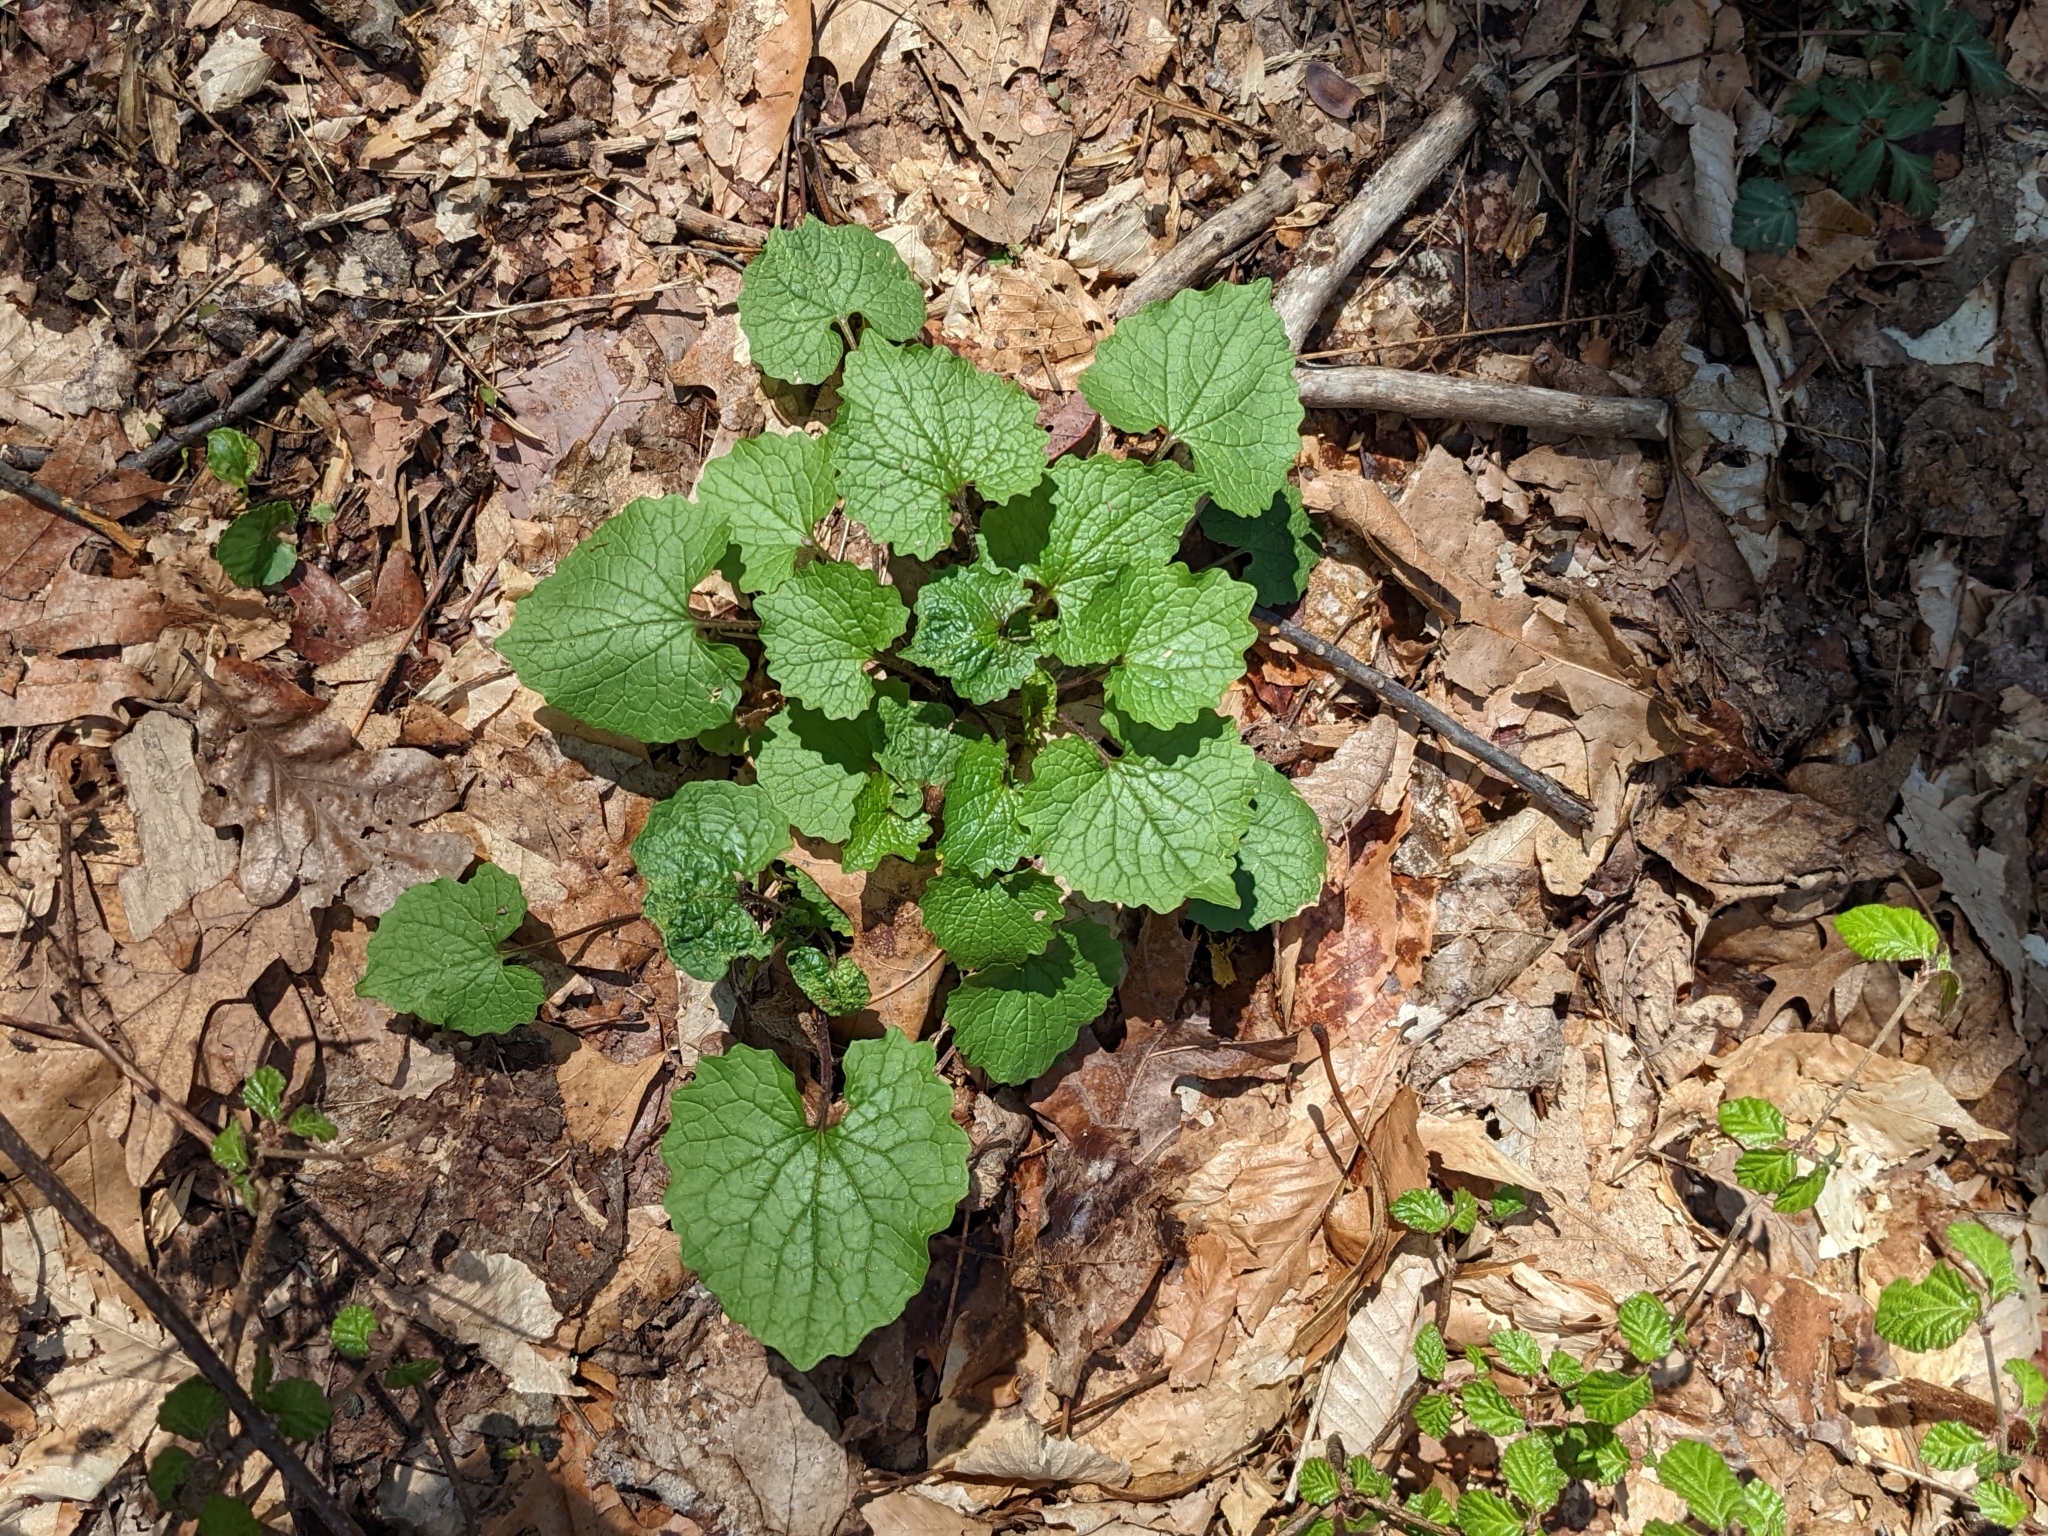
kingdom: Plantae
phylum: Tracheophyta
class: Magnoliopsida
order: Brassicales
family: Brassicaceae
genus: Alliaria
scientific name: Alliaria petiolata
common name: Garlic mustard
